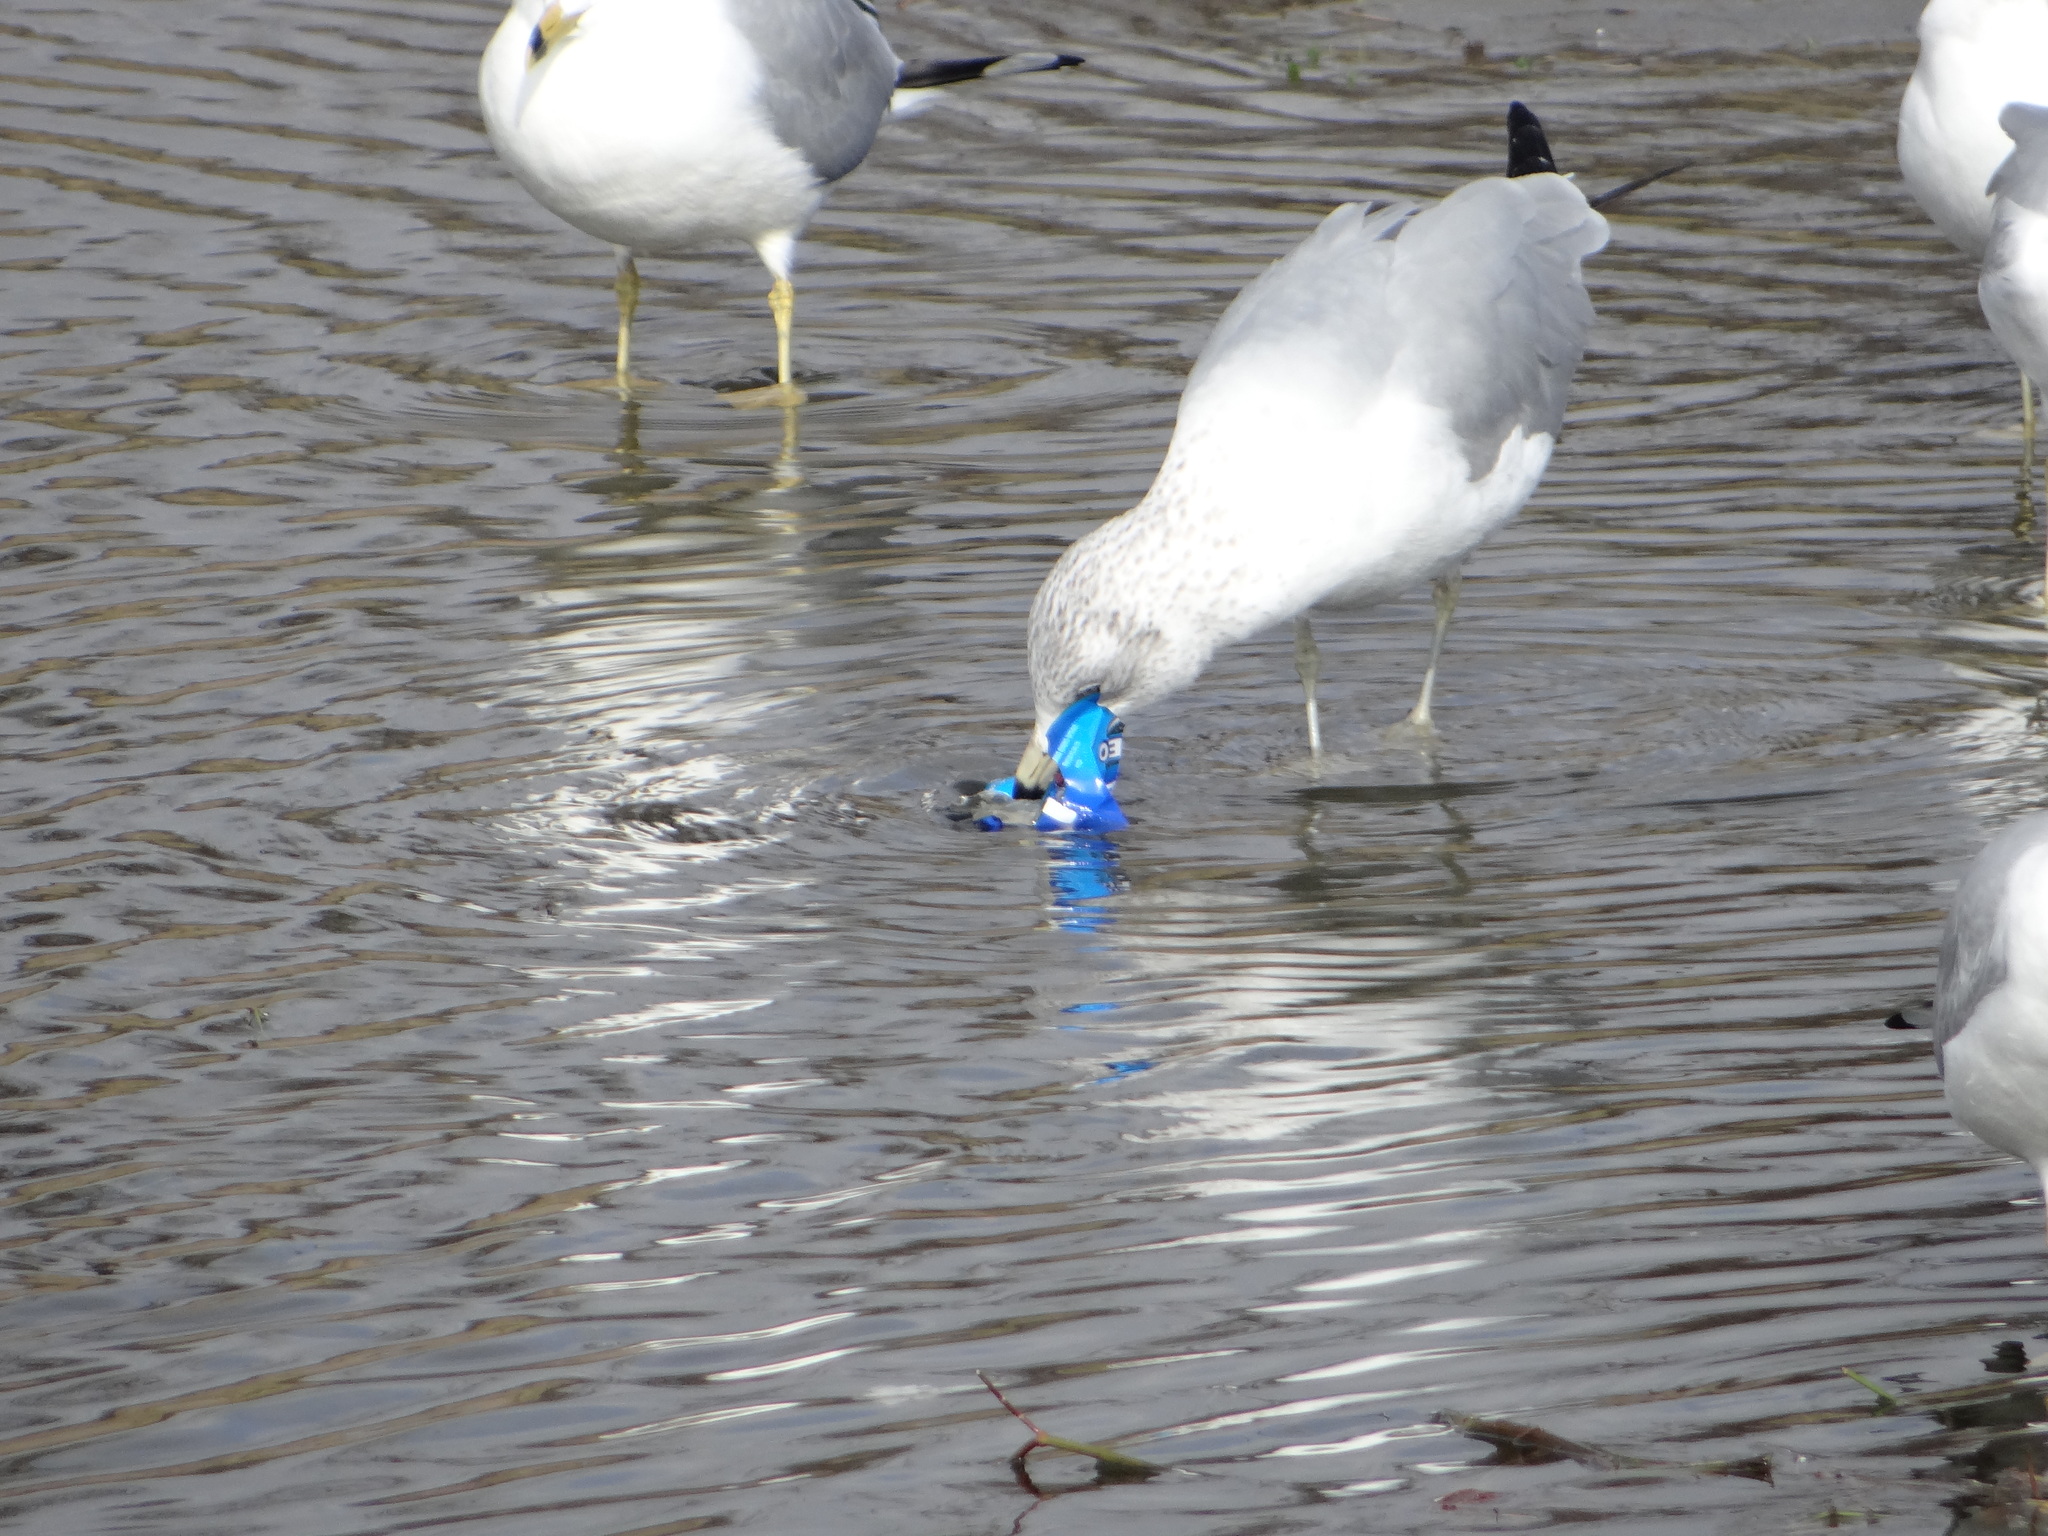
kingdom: Animalia
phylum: Chordata
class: Aves
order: Charadriiformes
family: Laridae
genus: Larus
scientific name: Larus delawarensis
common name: Ring-billed gull
